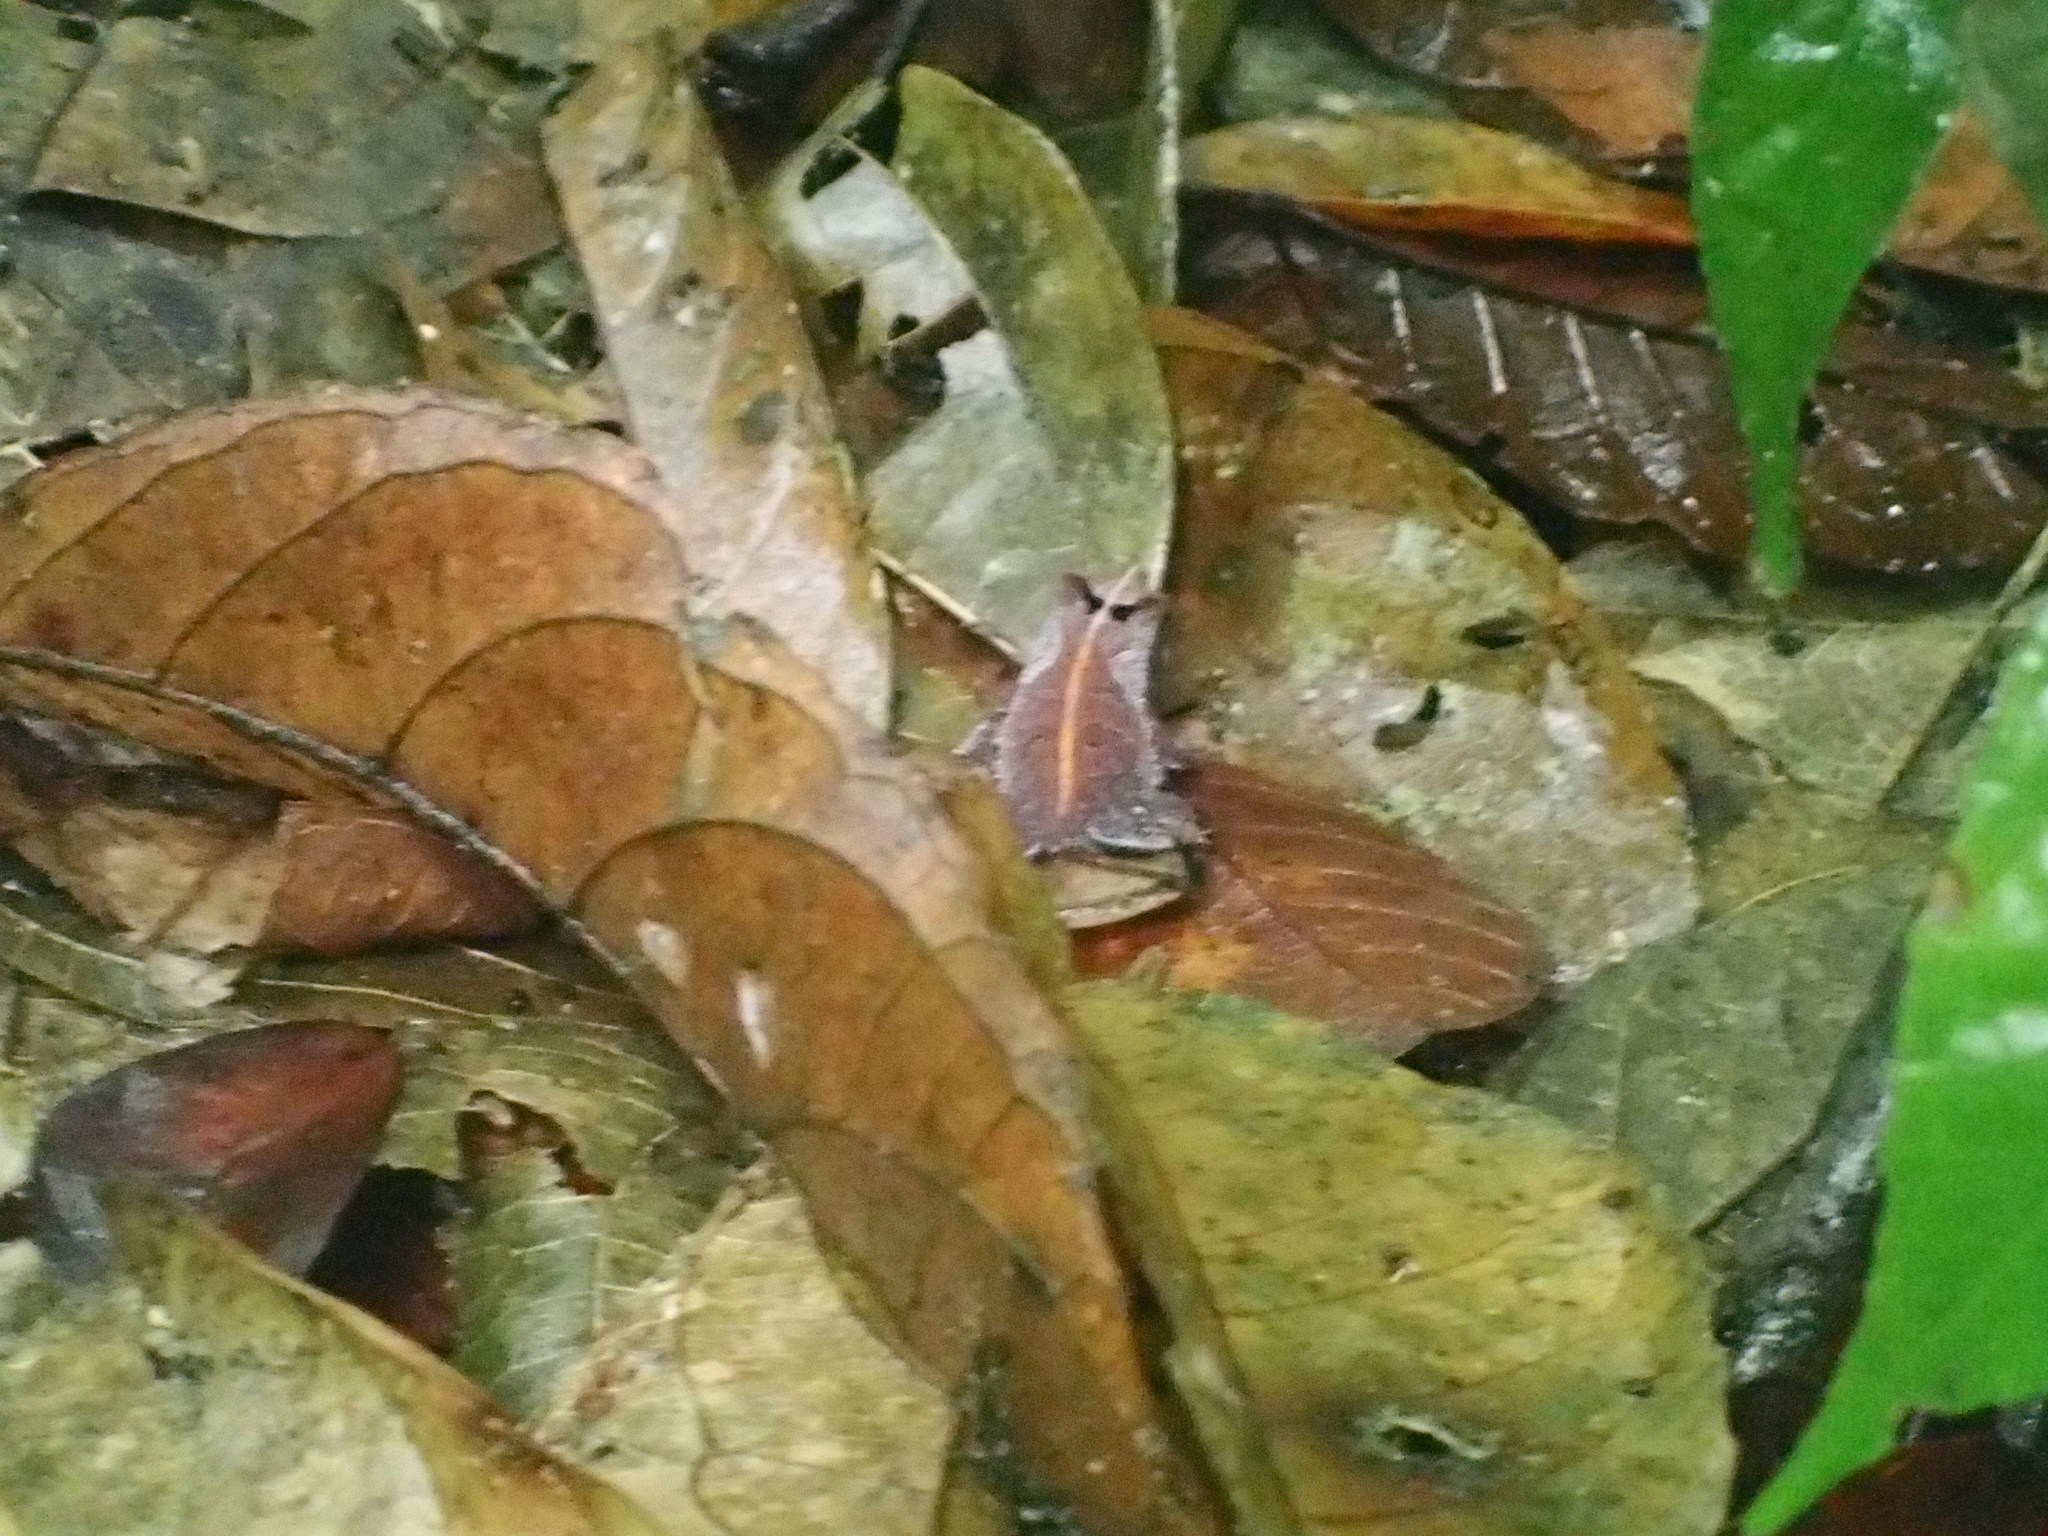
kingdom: Animalia
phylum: Chordata
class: Amphibia
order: Anura
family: Bufonidae
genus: Rhinella
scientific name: Rhinella margaritifera
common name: Mitred toad
